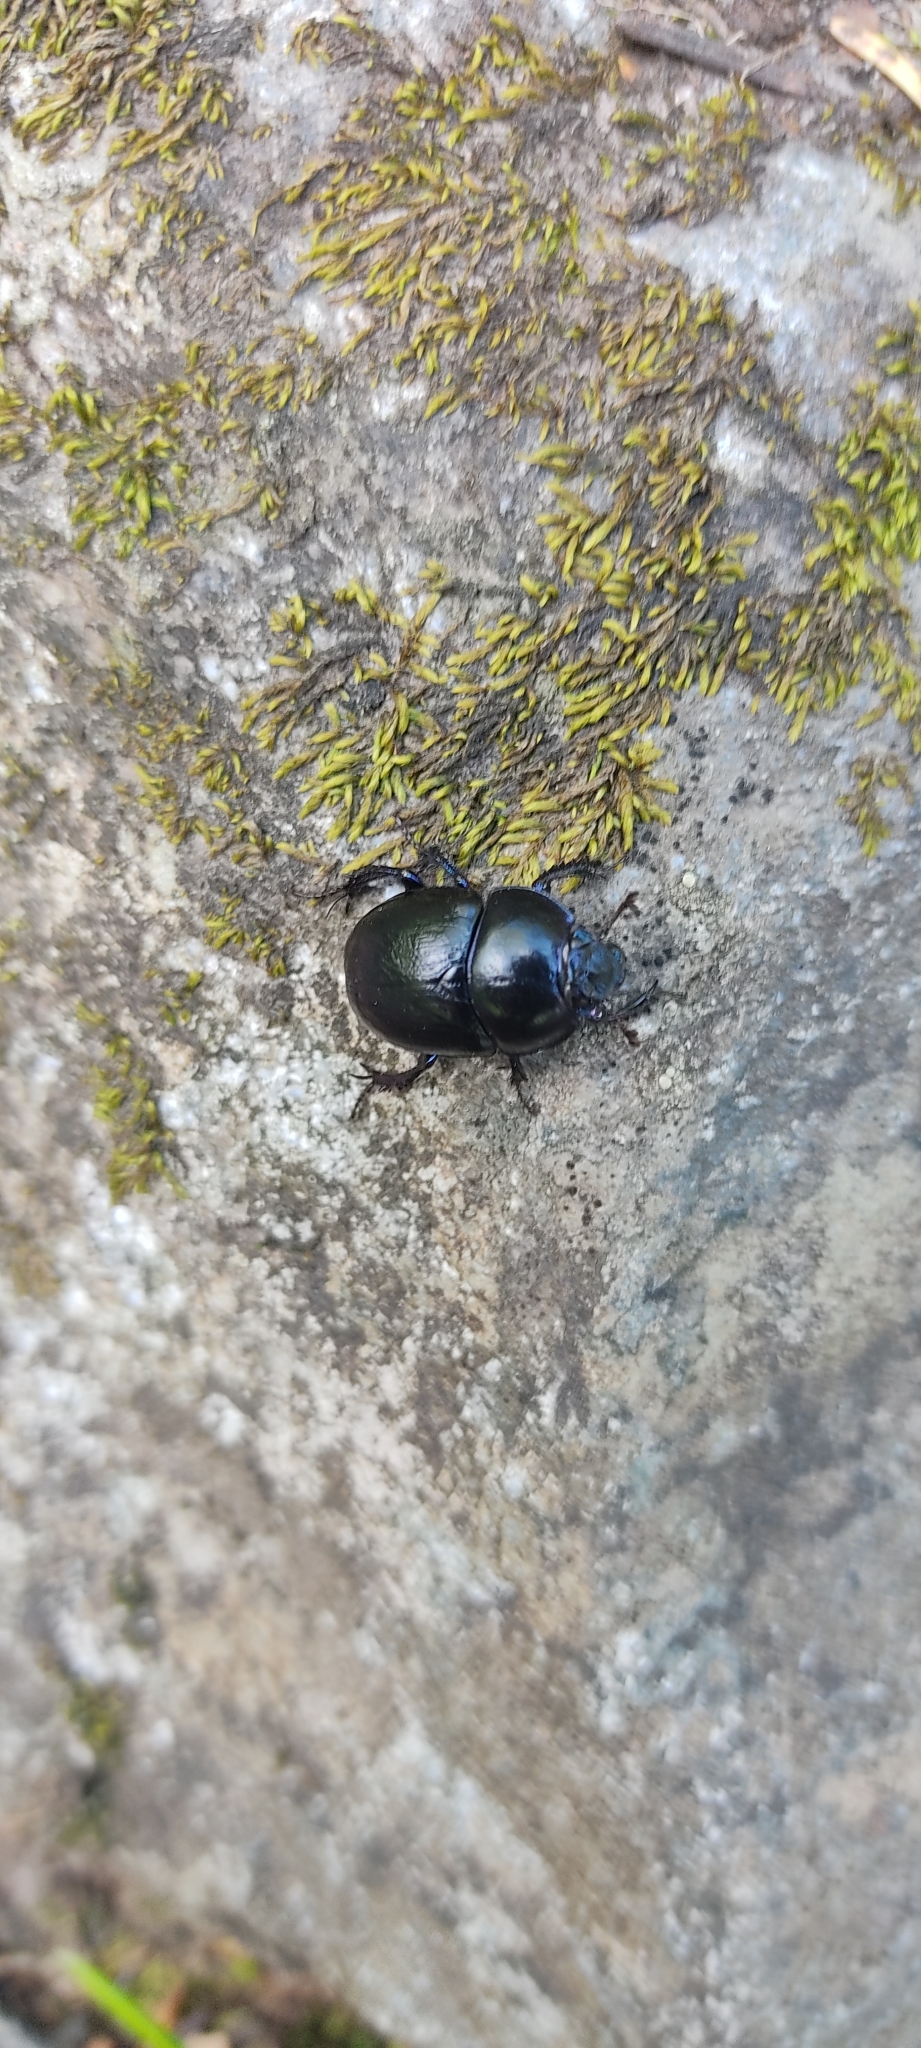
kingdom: Animalia
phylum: Arthropoda
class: Insecta
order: Coleoptera
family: Geotrupidae
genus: Anoplotrupes
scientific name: Anoplotrupes stercorosus
